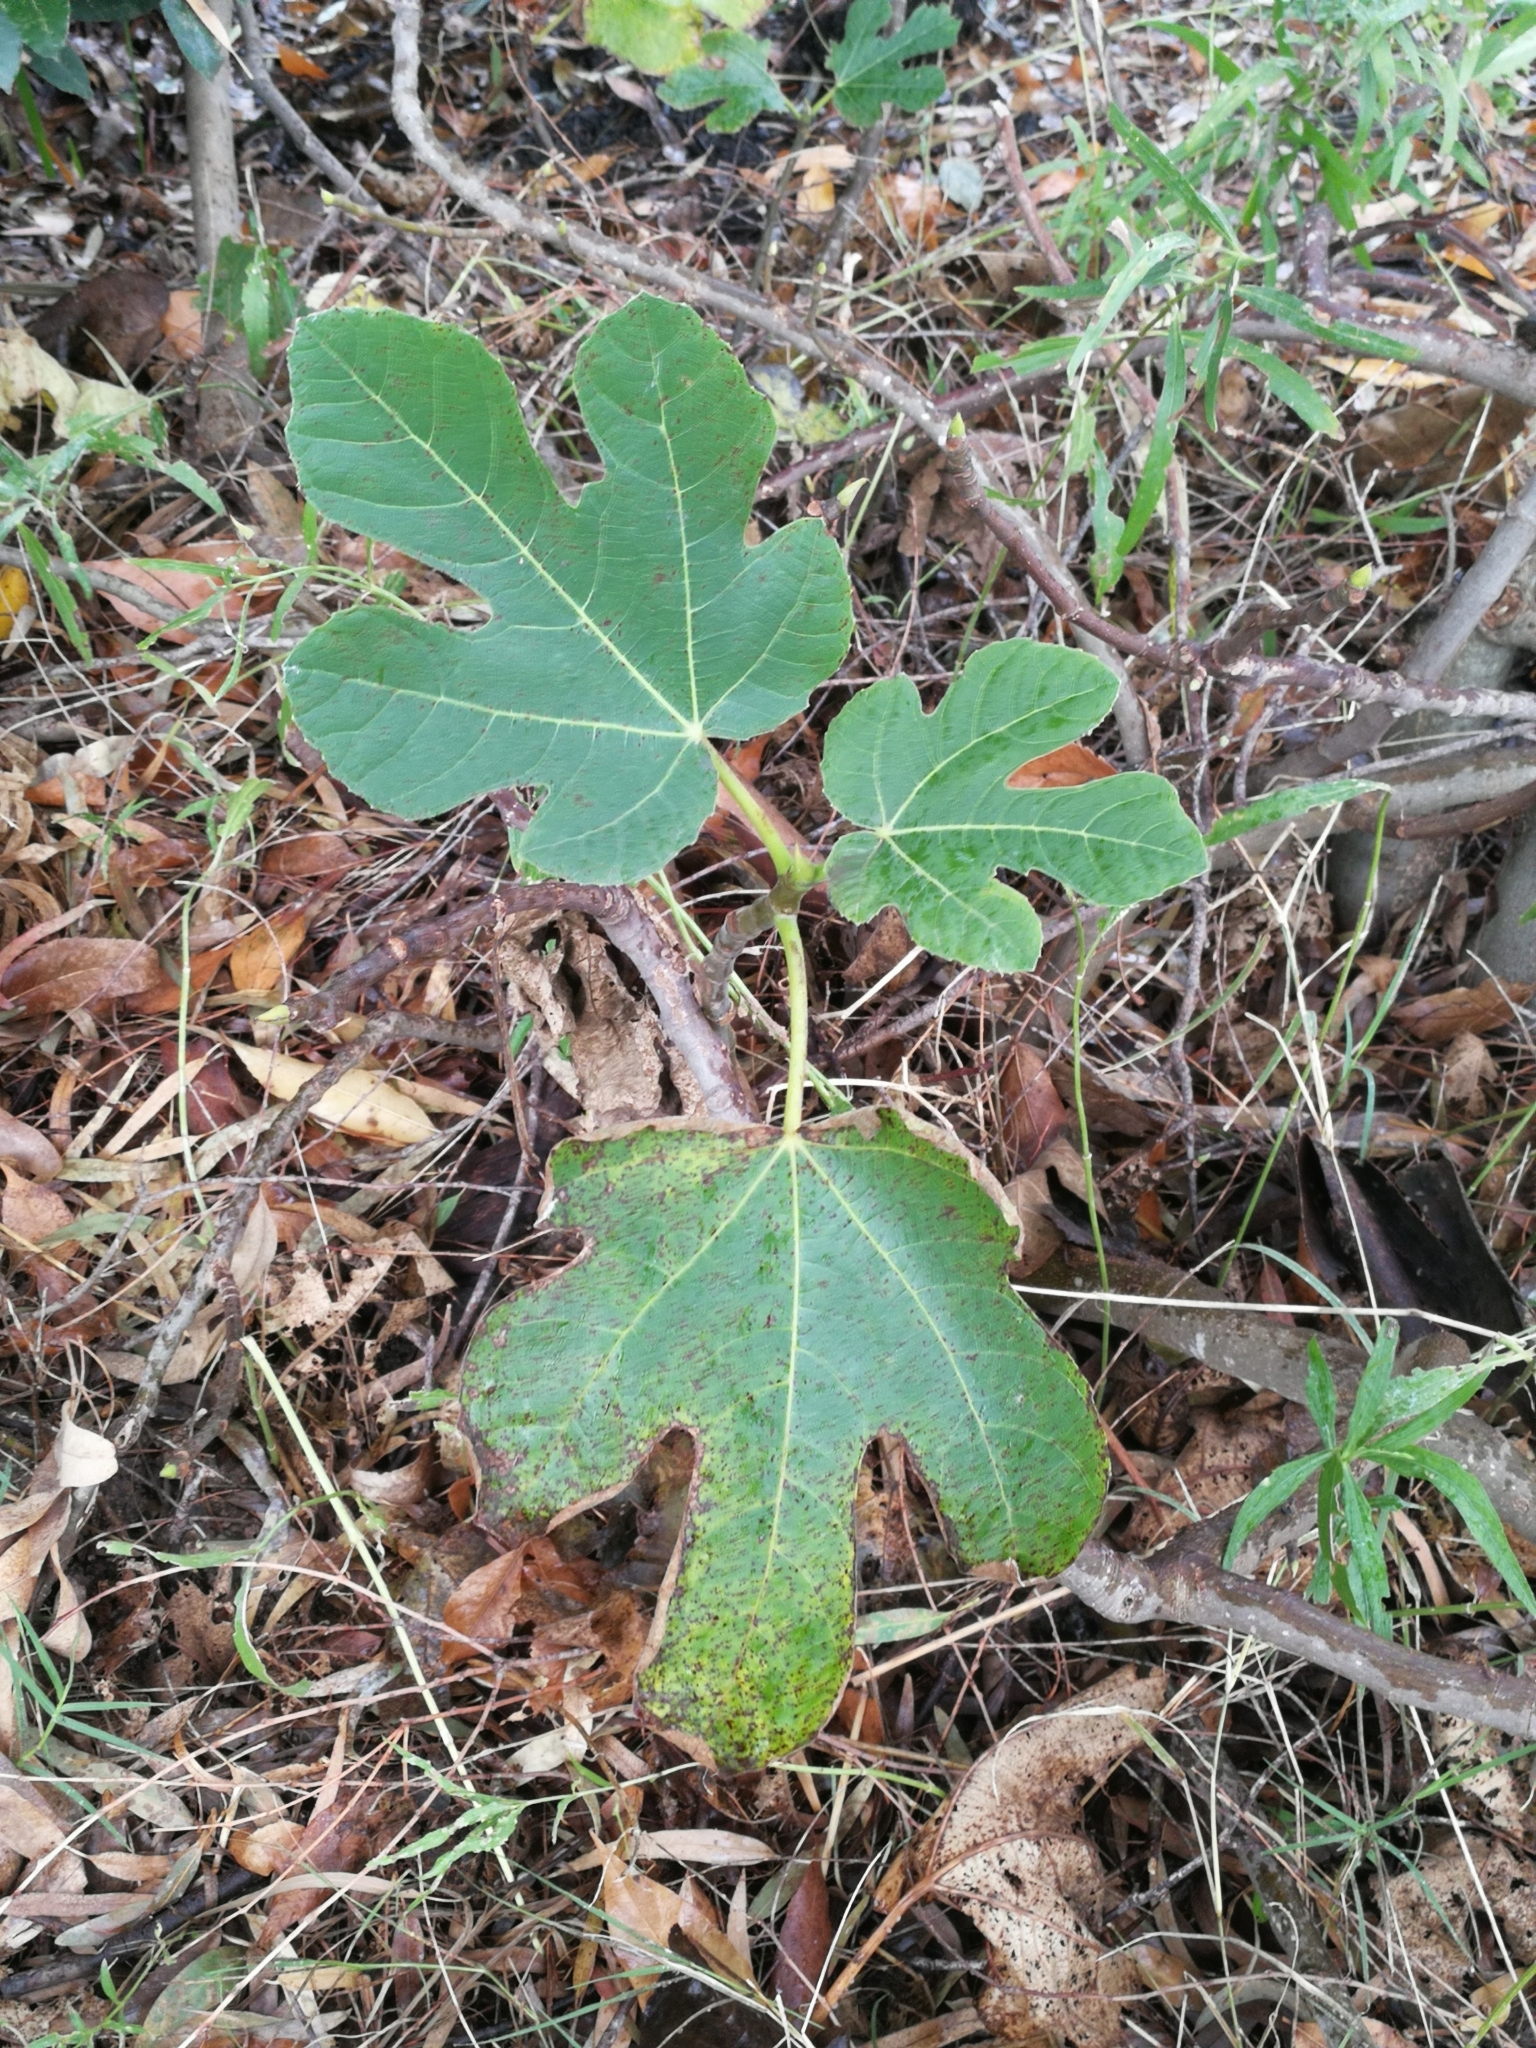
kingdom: Plantae
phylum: Tracheophyta
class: Magnoliopsida
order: Rosales
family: Moraceae
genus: Ficus
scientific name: Ficus carica
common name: Fig
